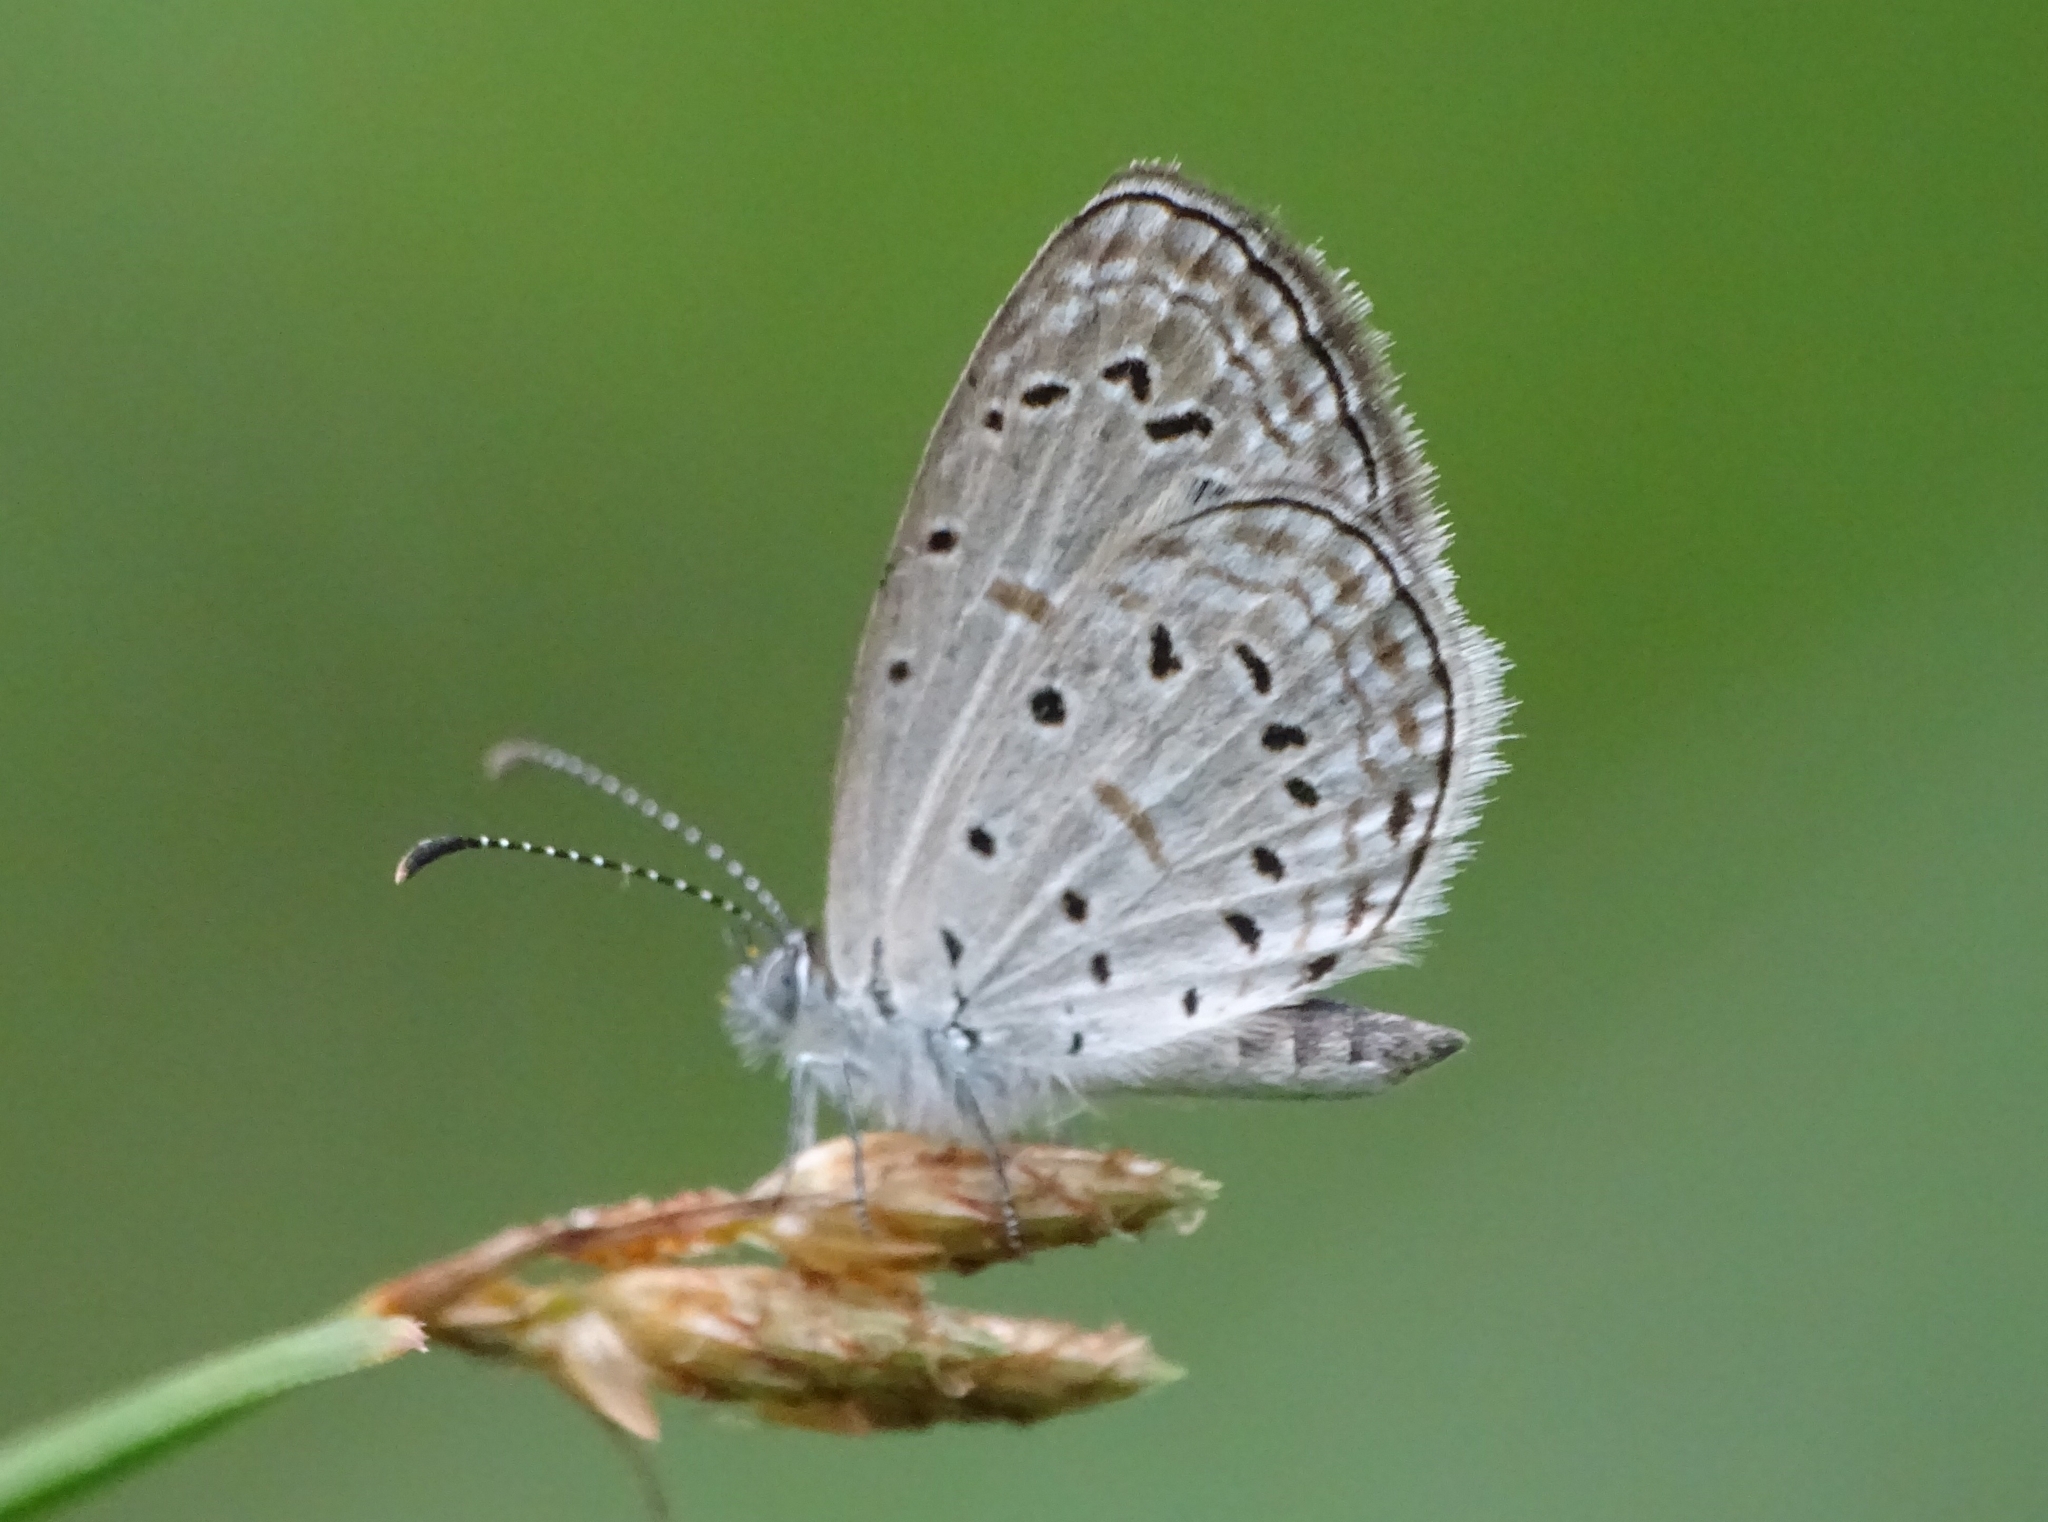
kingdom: Animalia
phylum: Arthropoda
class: Insecta
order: Lepidoptera
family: Lycaenidae
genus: Zizula
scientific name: Zizula hylax
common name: Gaika blue
